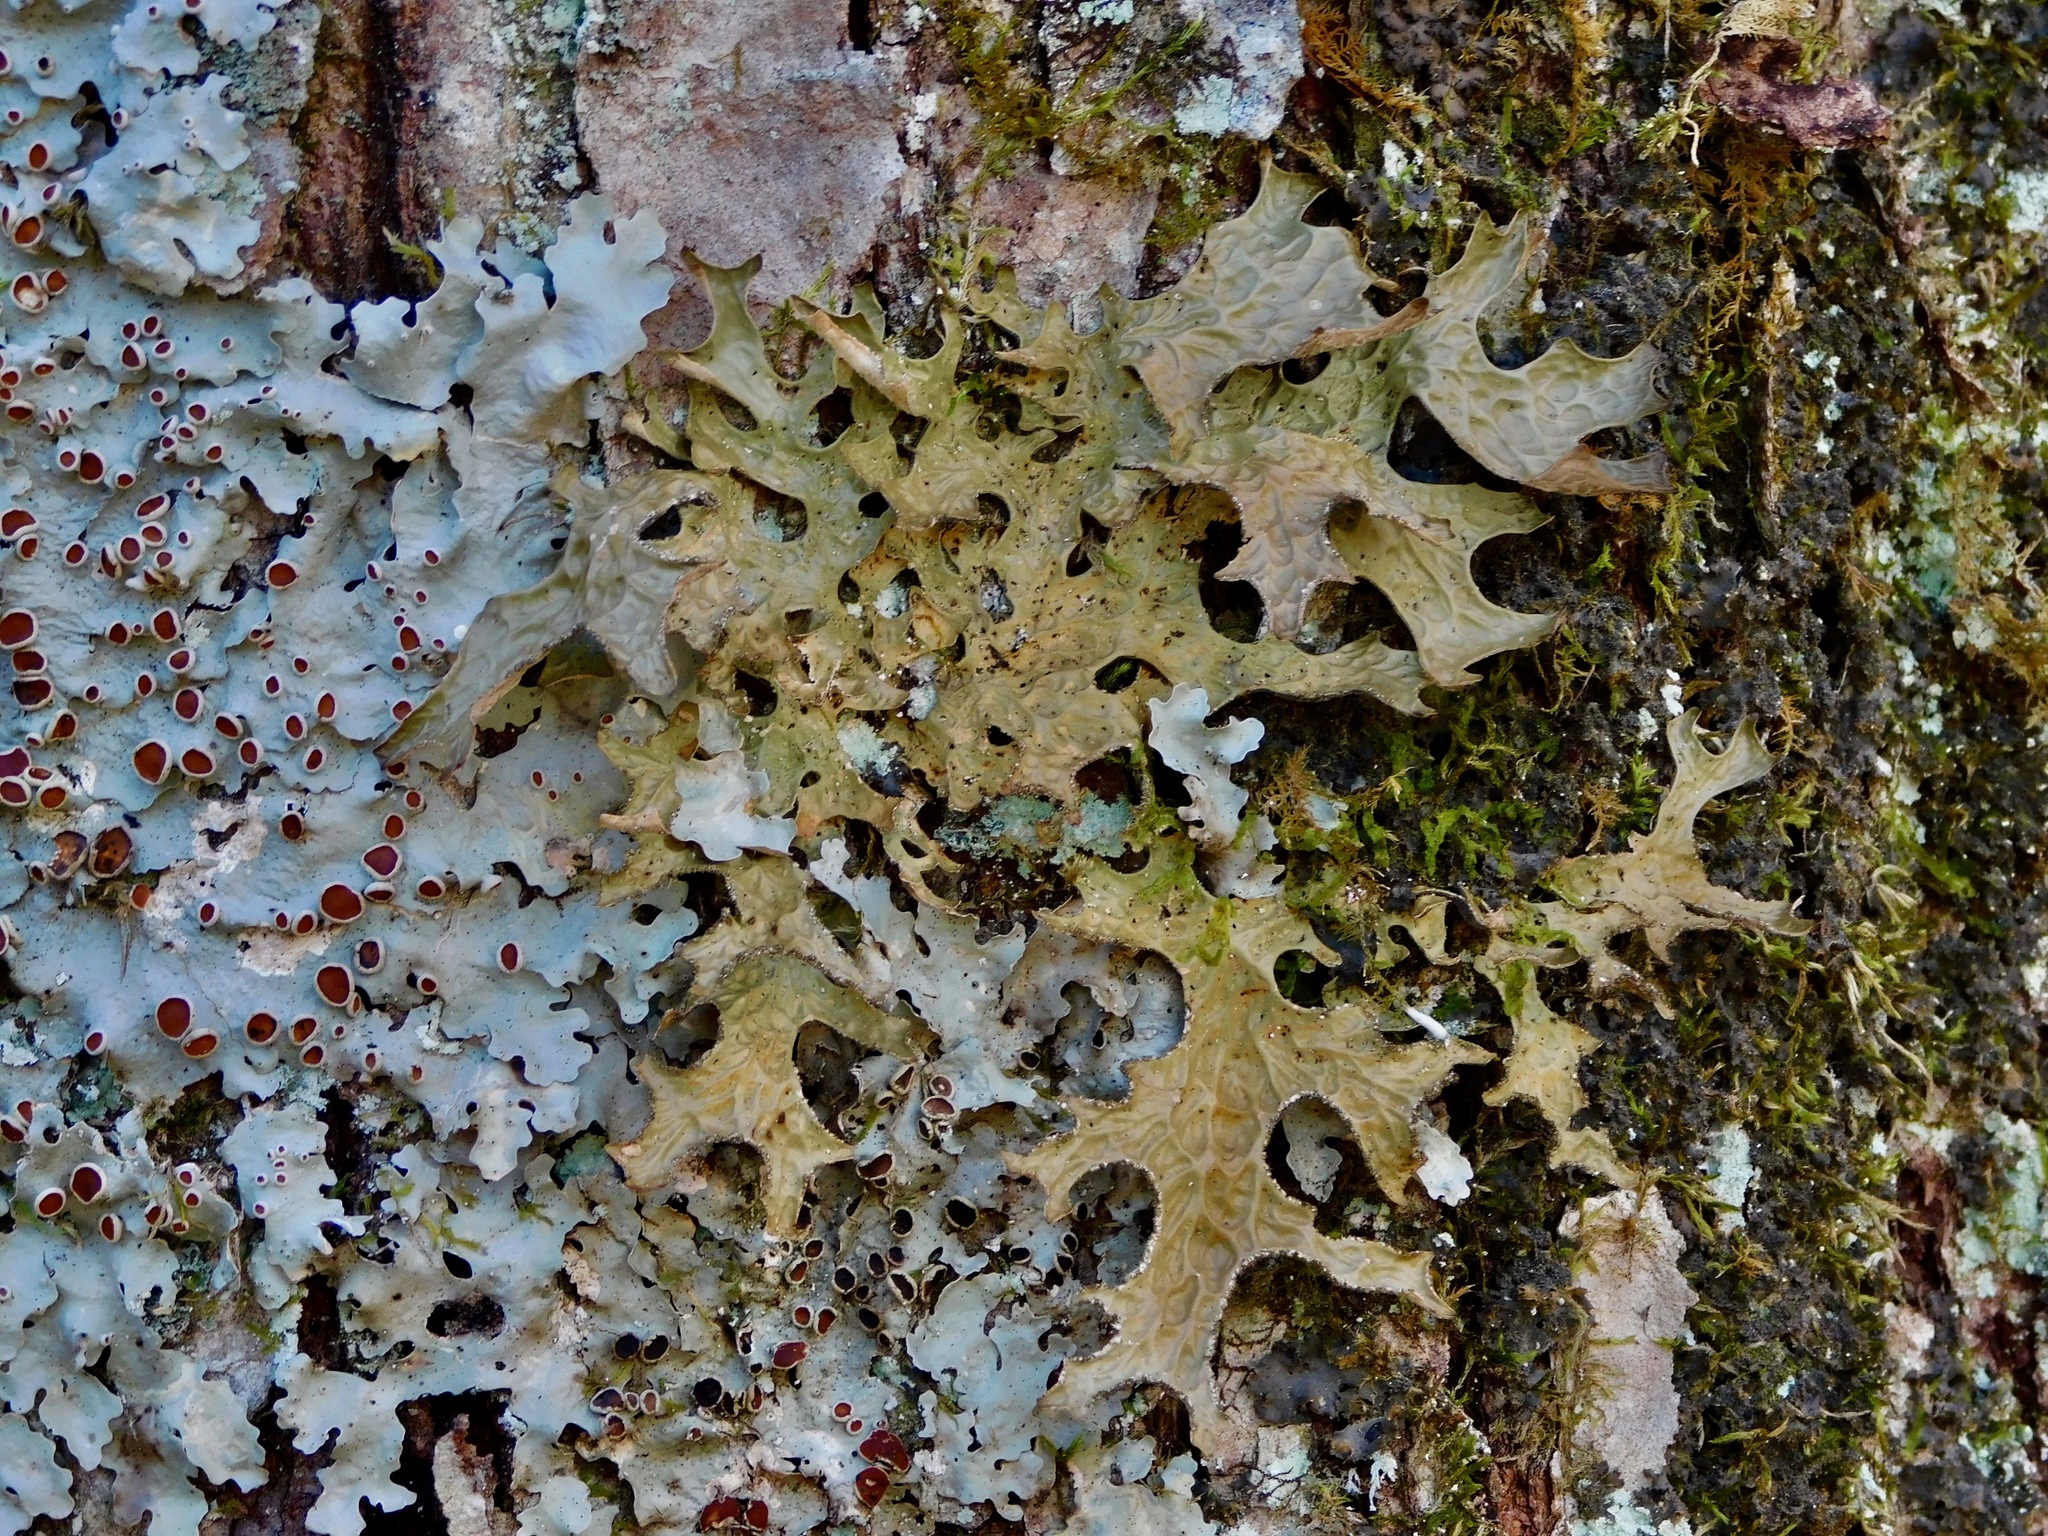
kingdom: Fungi
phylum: Ascomycota
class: Lecanoromycetes
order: Peltigerales
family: Lobariaceae
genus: Lobaria
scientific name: Lobaria pulmonaria
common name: Lungwort
